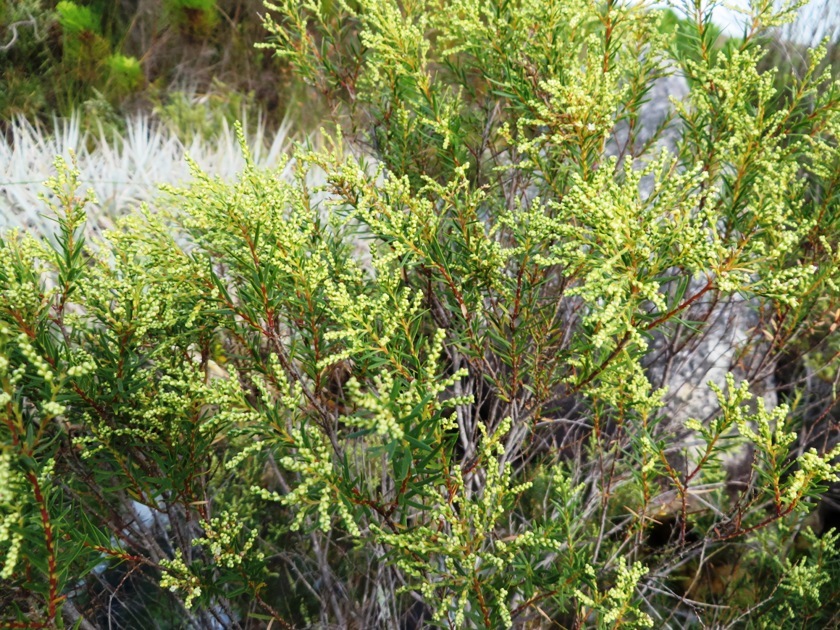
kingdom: Plantae
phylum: Tracheophyta
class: Magnoliopsida
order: Bruniales
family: Bruniaceae
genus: Brunia
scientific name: Brunia africana
